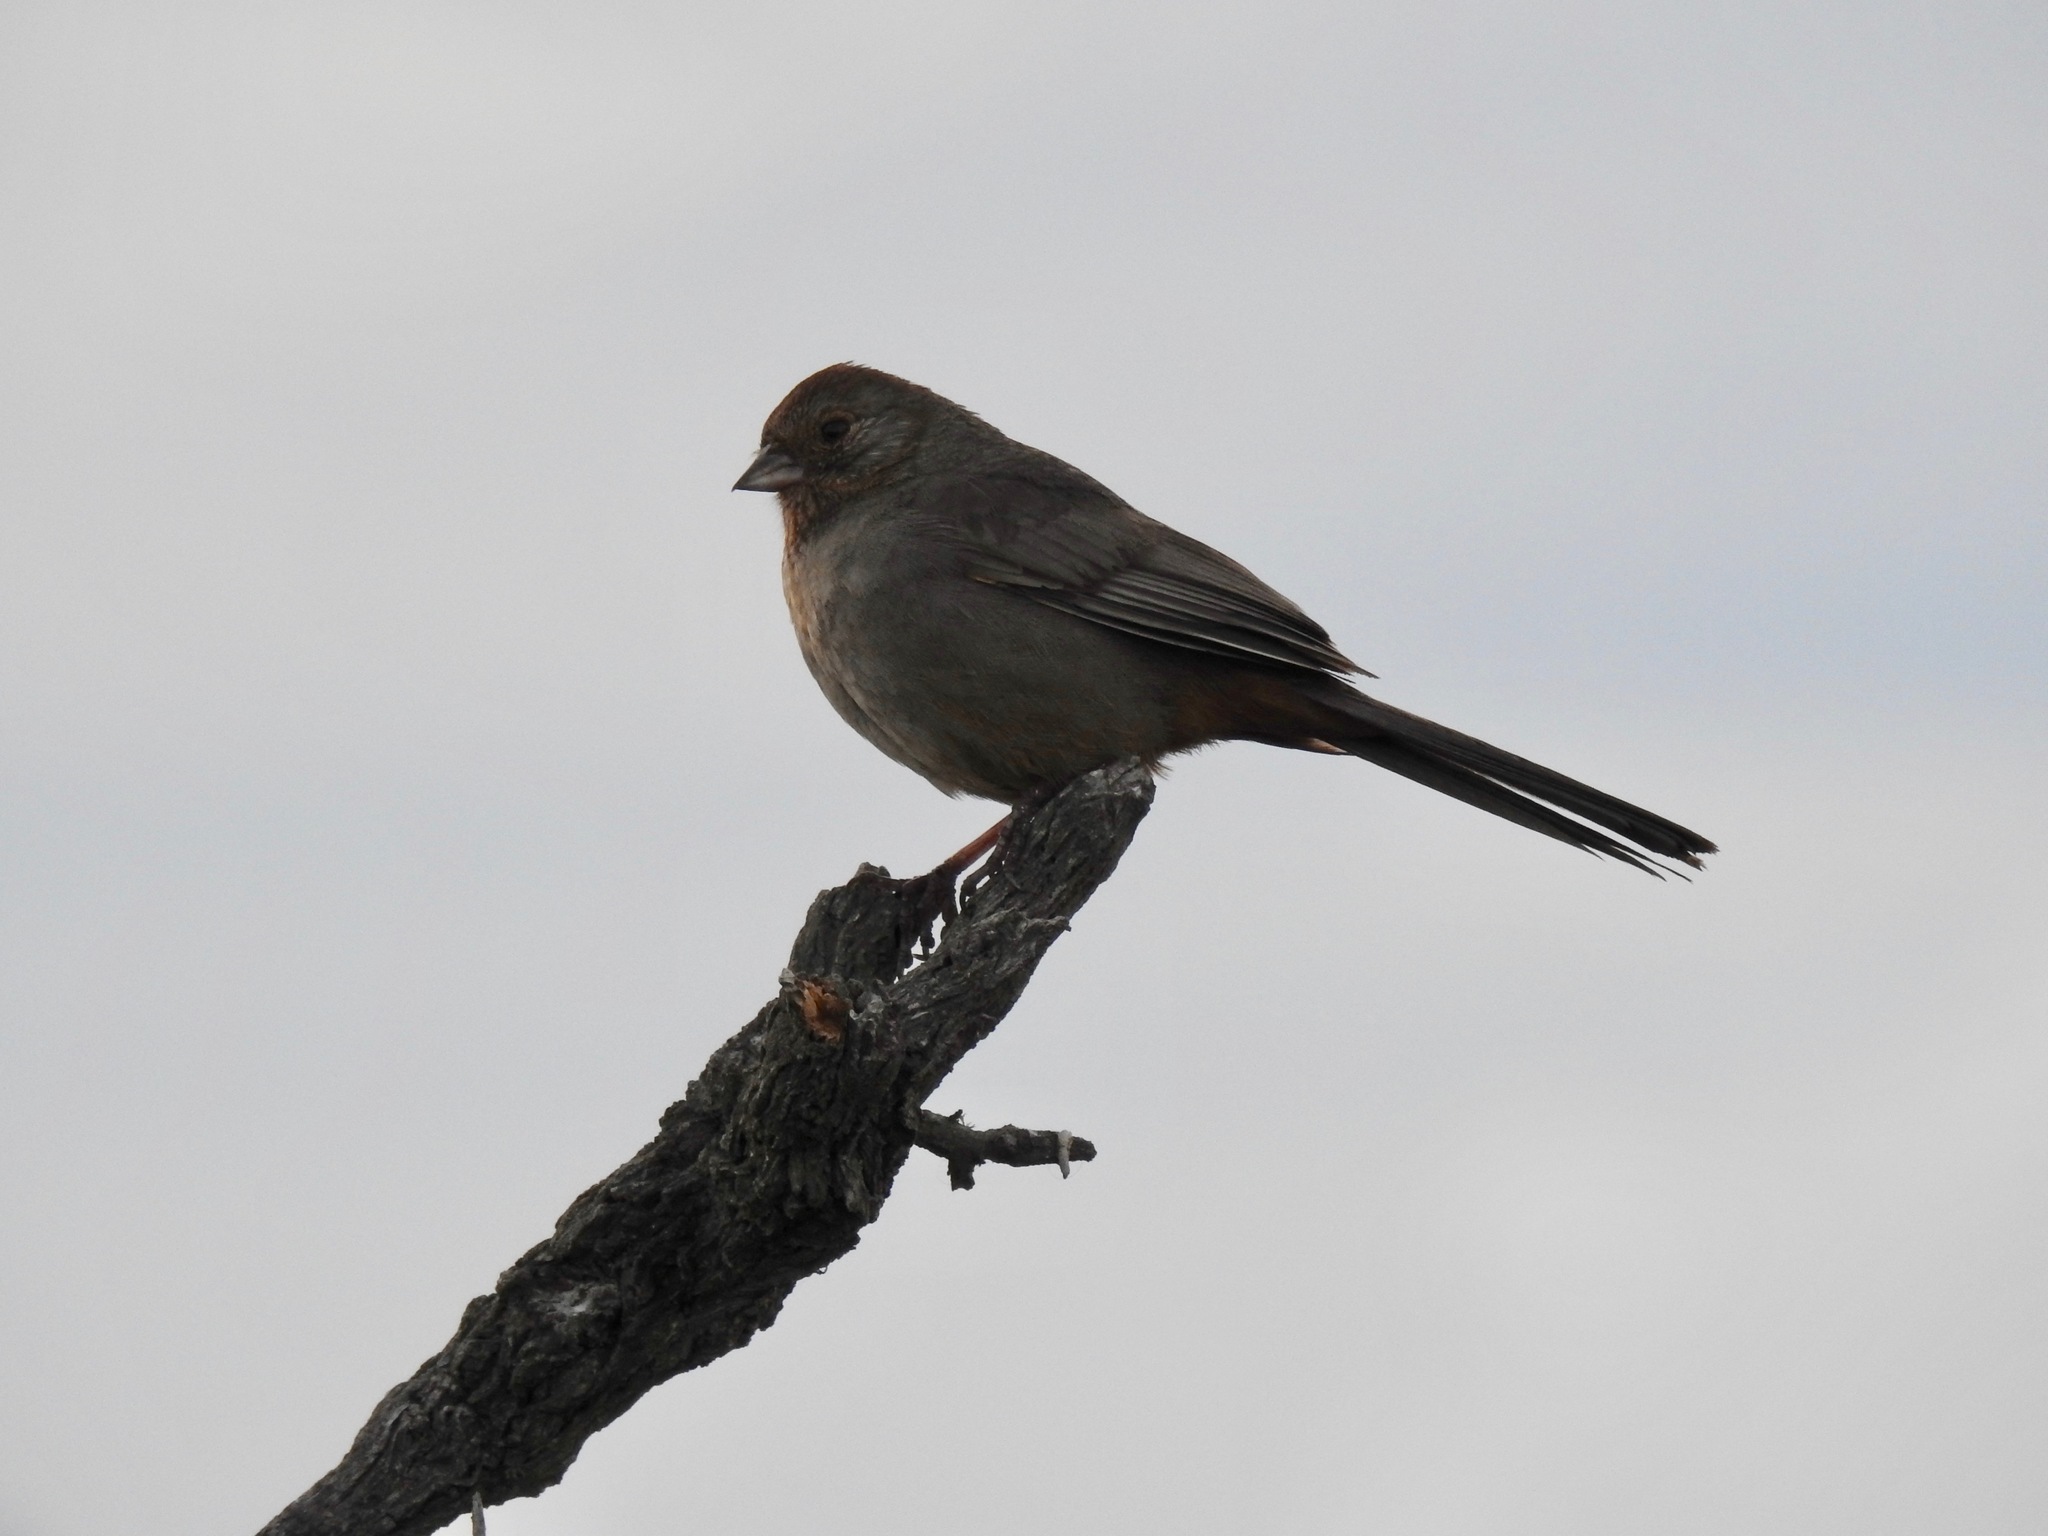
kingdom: Animalia
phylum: Chordata
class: Aves
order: Passeriformes
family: Passerellidae
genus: Melozone
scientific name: Melozone crissalis
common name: California towhee
